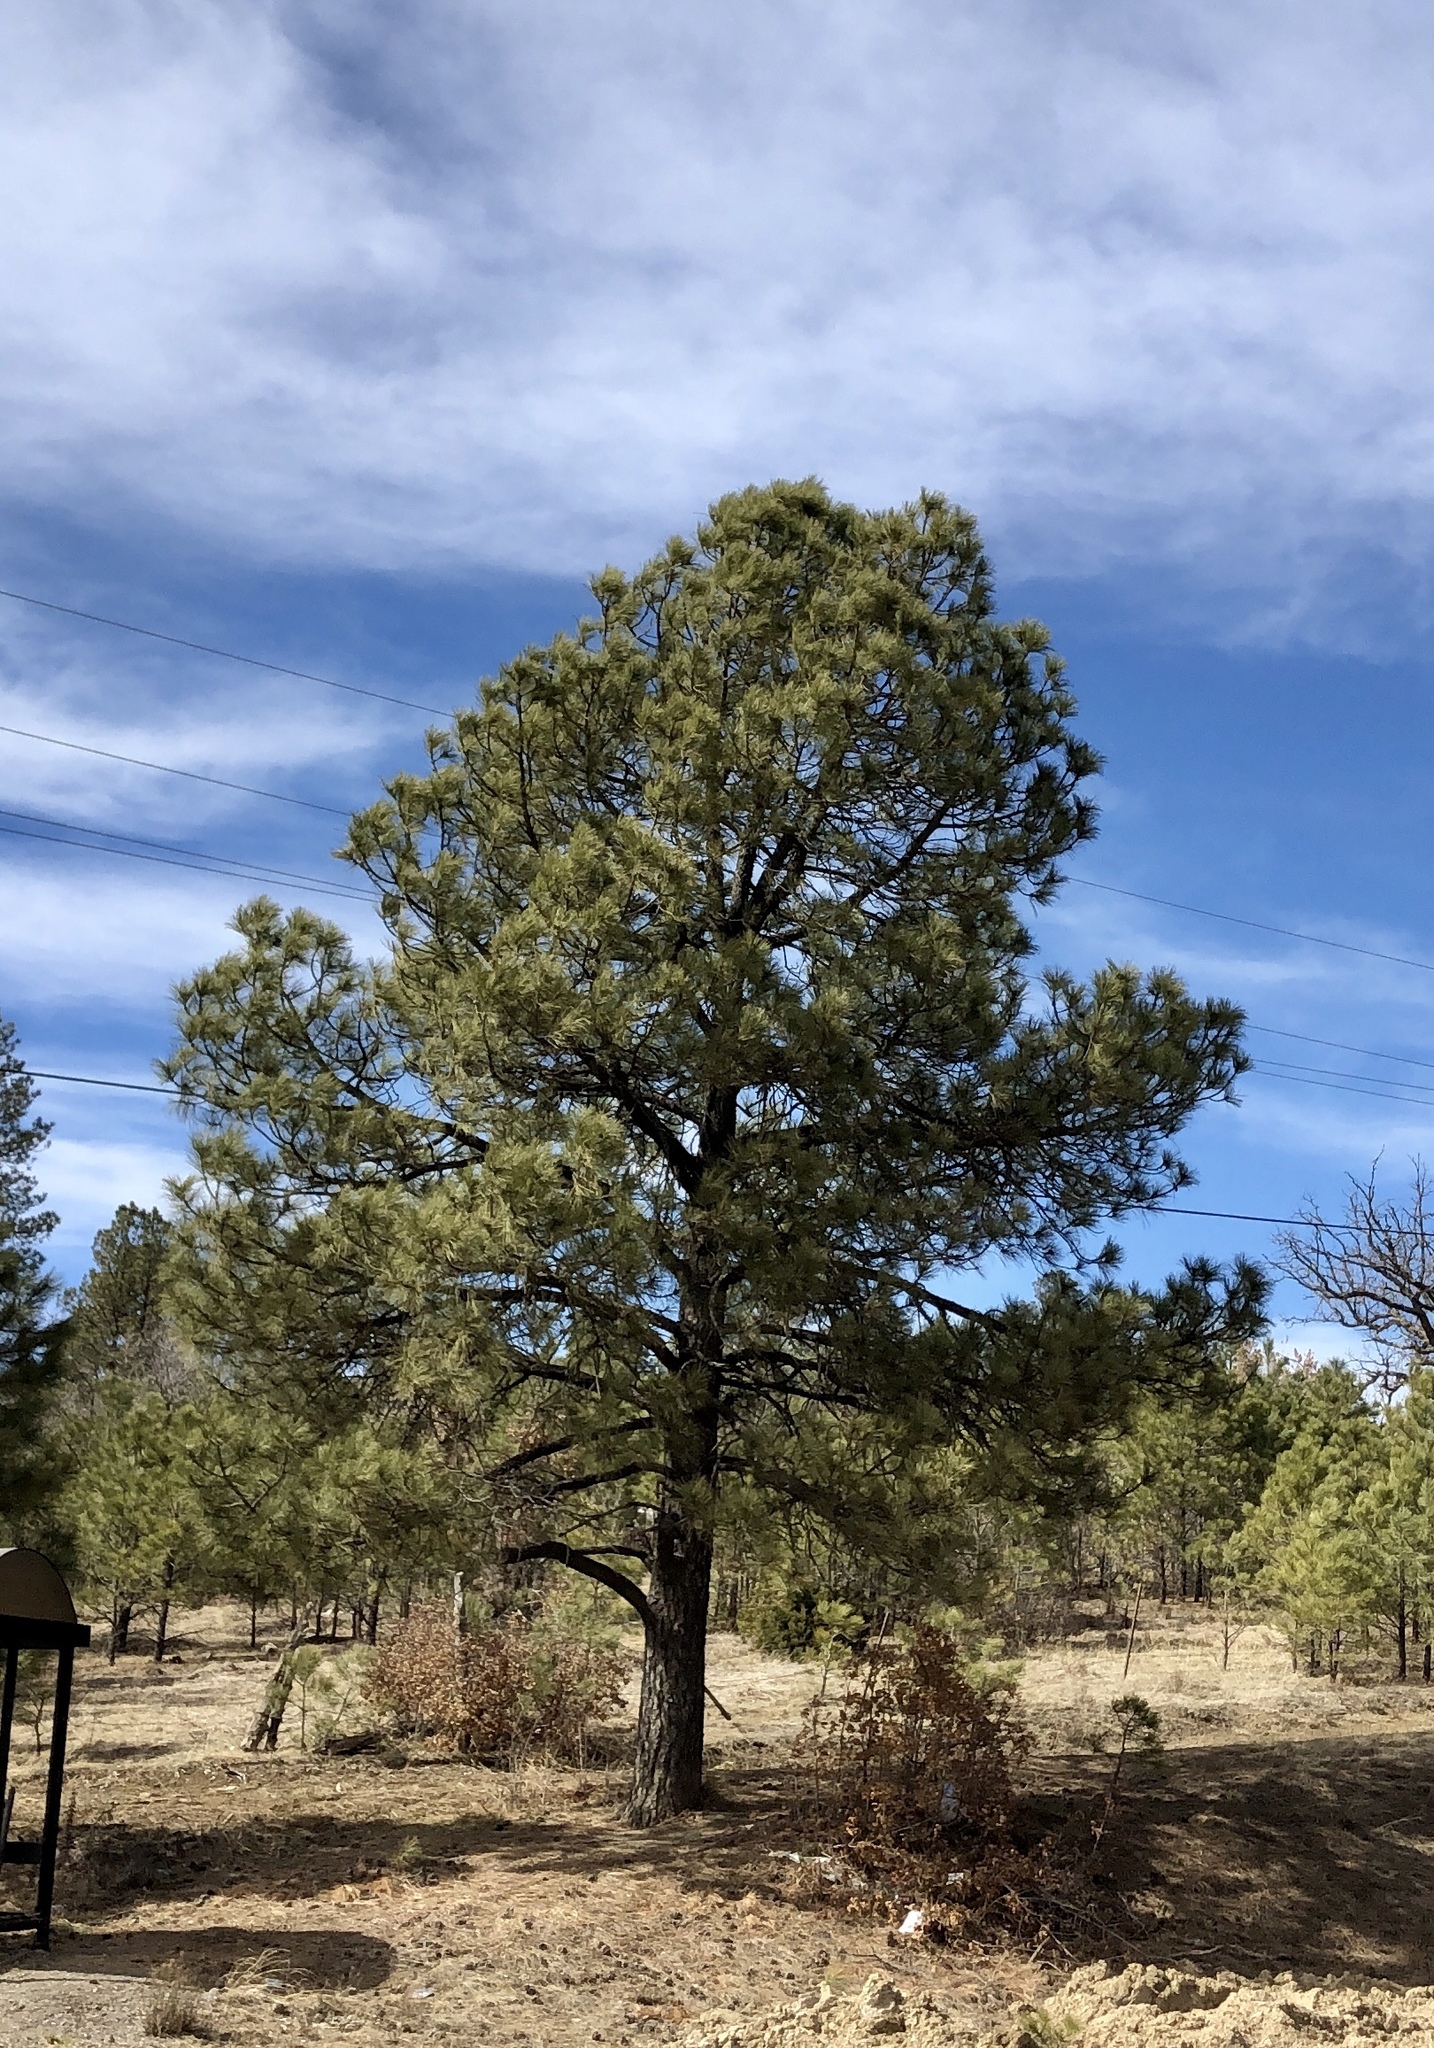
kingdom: Plantae
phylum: Tracheophyta
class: Pinopsida
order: Pinales
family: Pinaceae
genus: Pinus
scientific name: Pinus ponderosa
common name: Western yellow-pine
